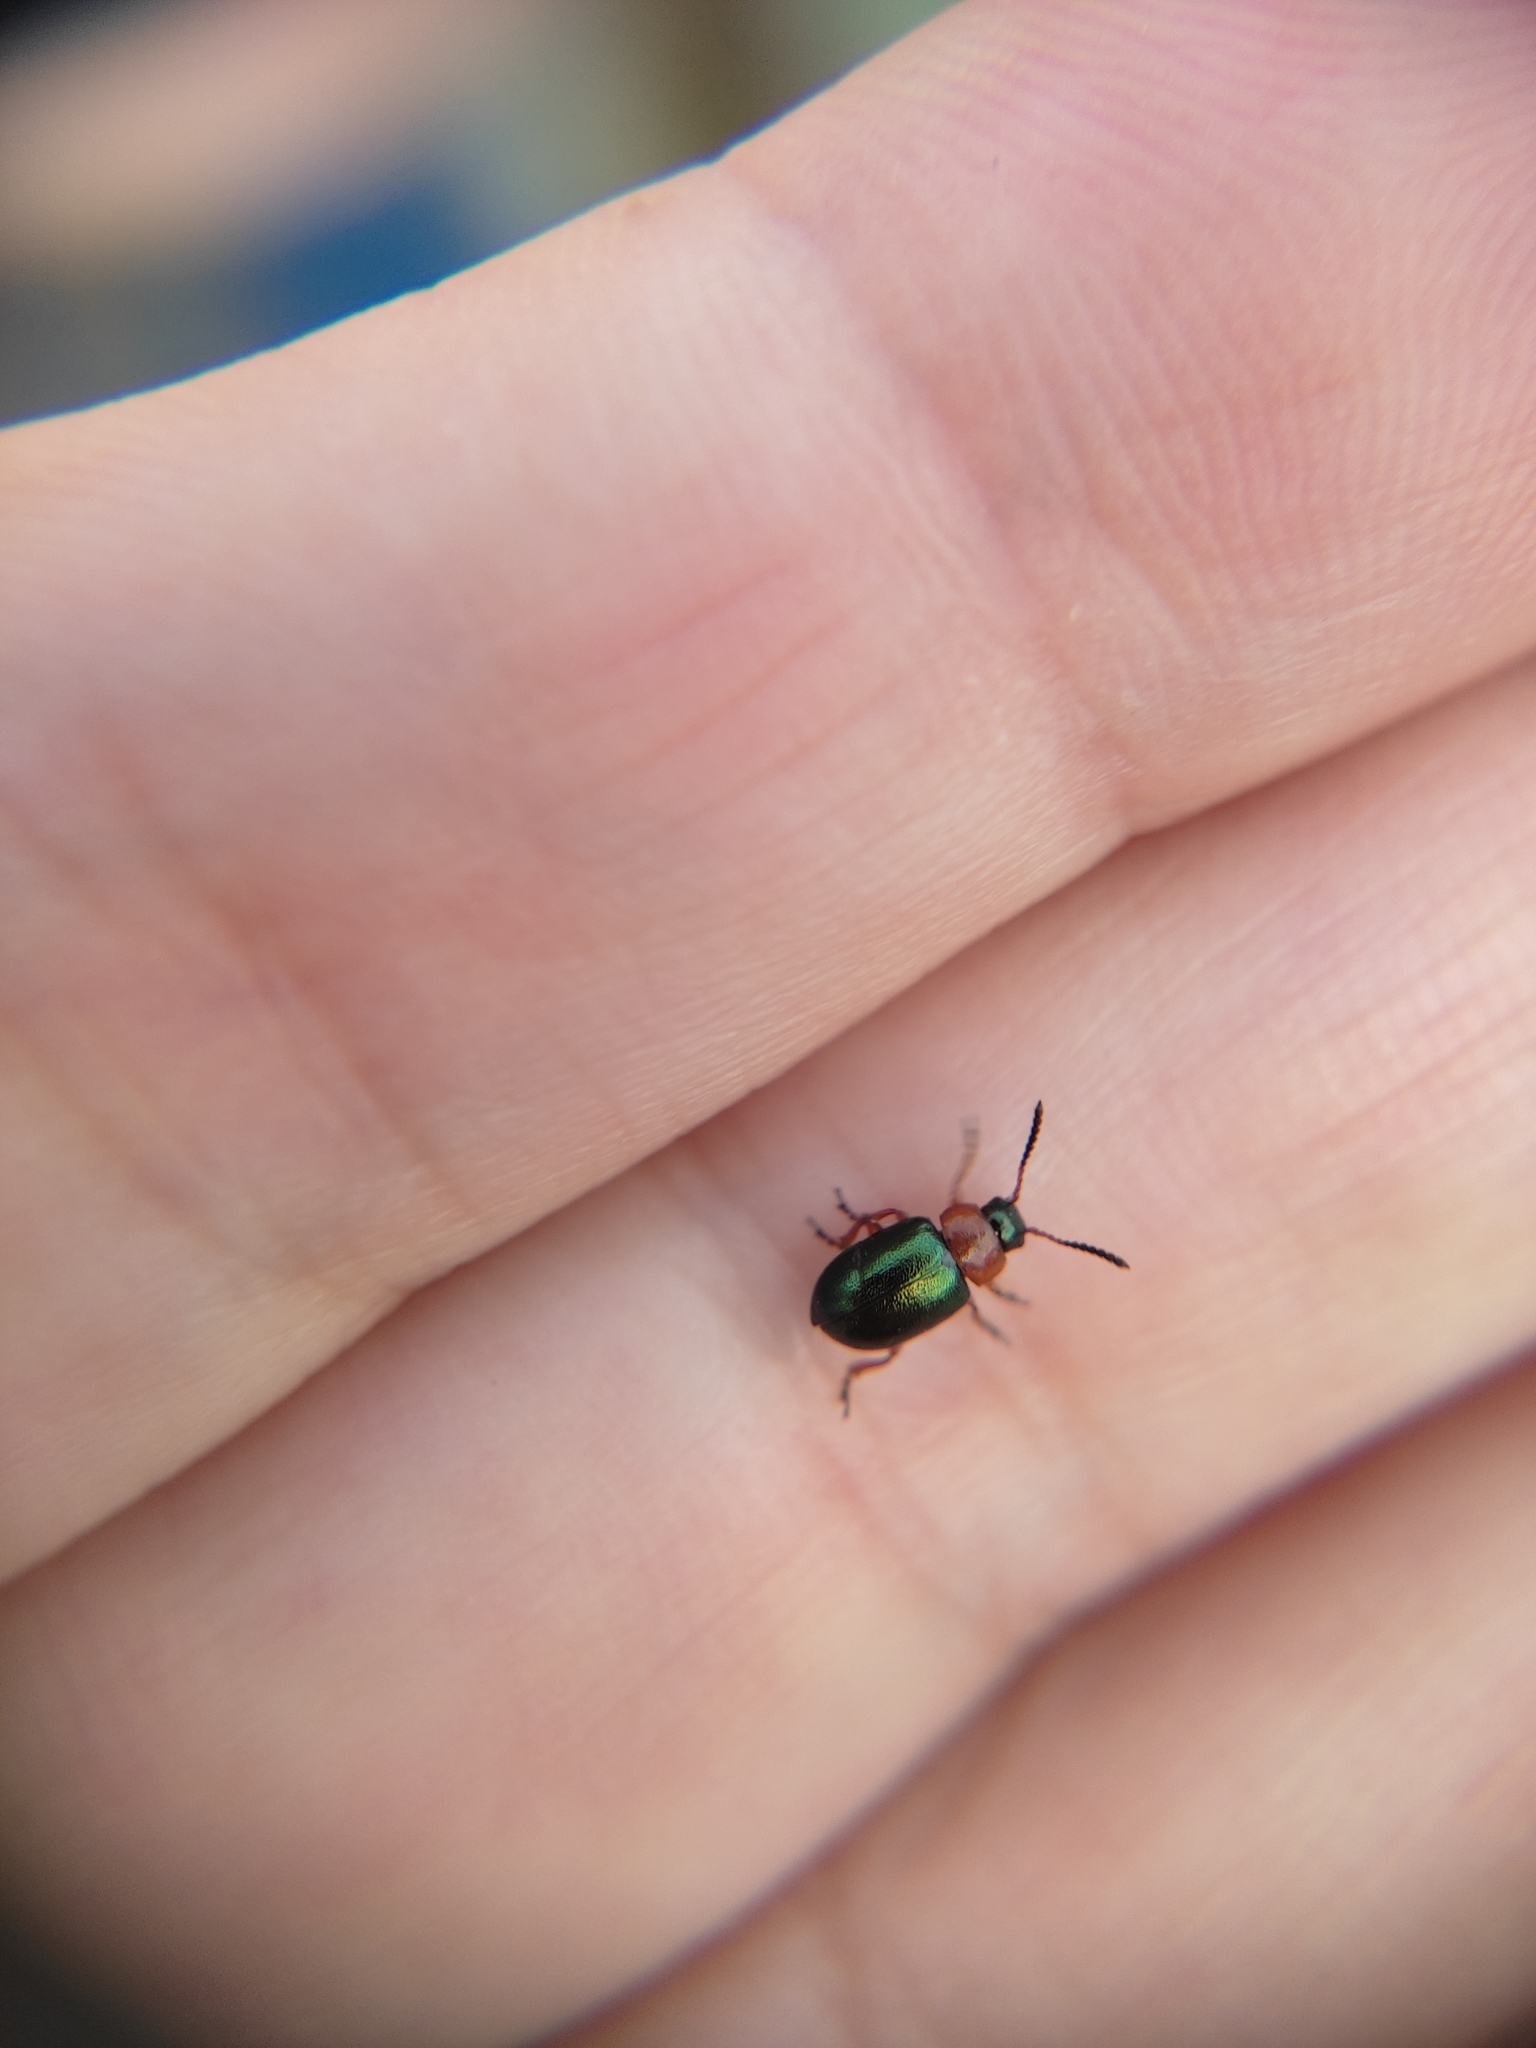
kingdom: Animalia
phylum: Arthropoda
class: Insecta
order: Coleoptera
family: Chrysomelidae
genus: Gastrophysa
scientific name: Gastrophysa polygoni
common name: Knotweed leaf beetle
